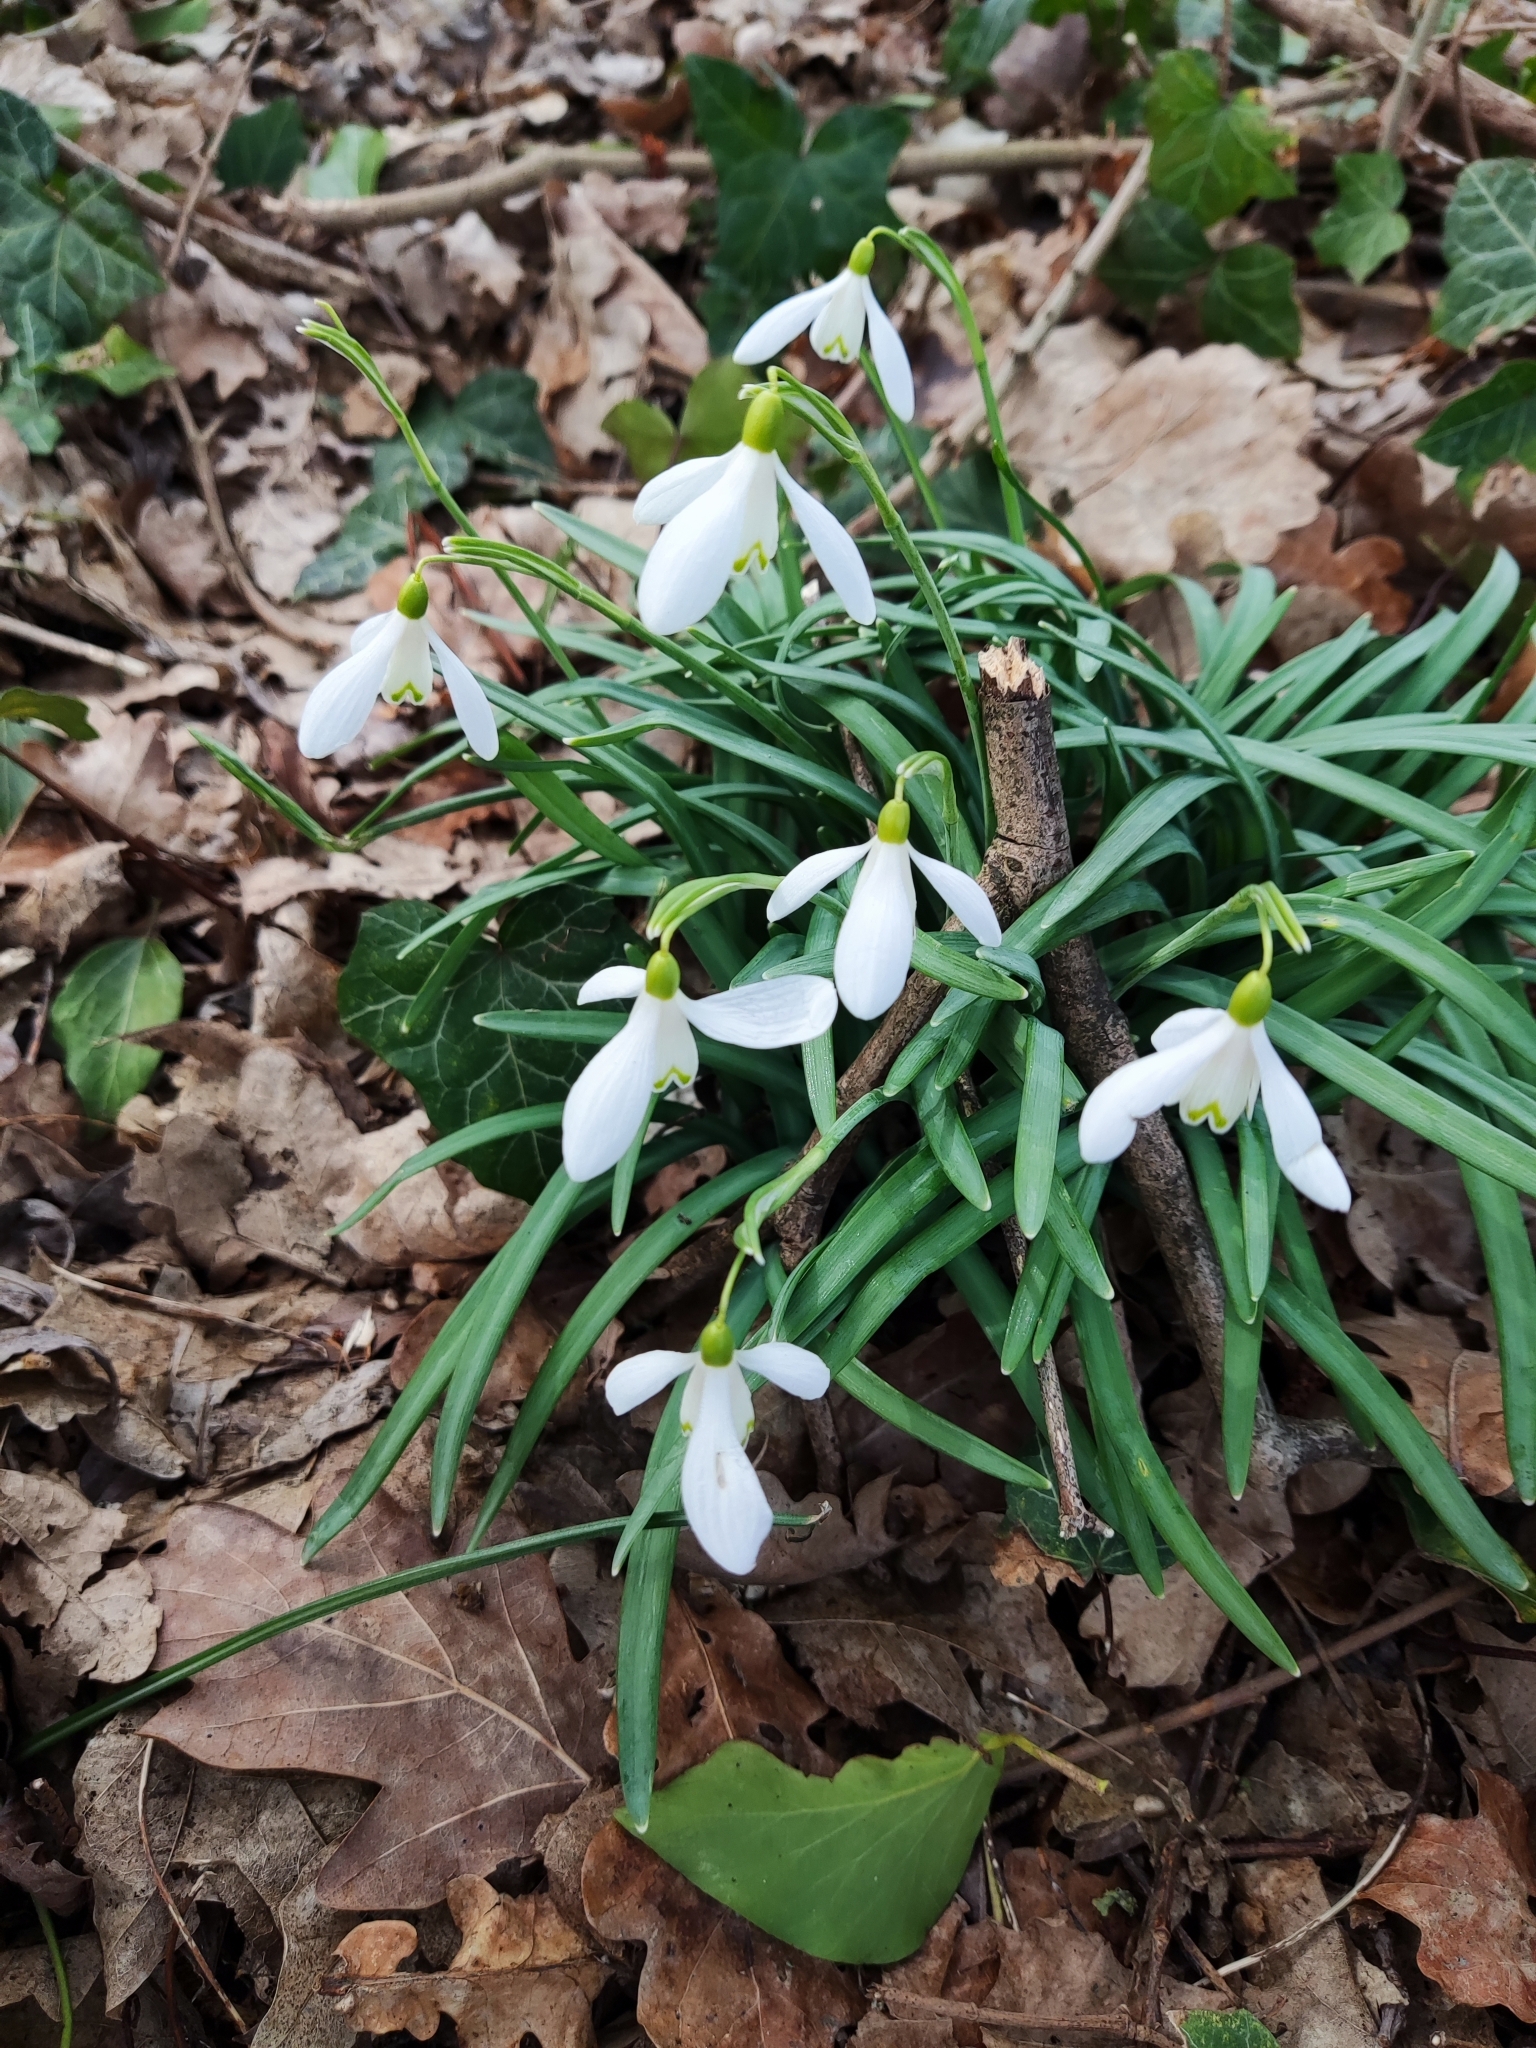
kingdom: Plantae
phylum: Tracheophyta
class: Liliopsida
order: Asparagales
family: Amaryllidaceae
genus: Galanthus
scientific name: Galanthus nivalis
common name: Snowdrop
